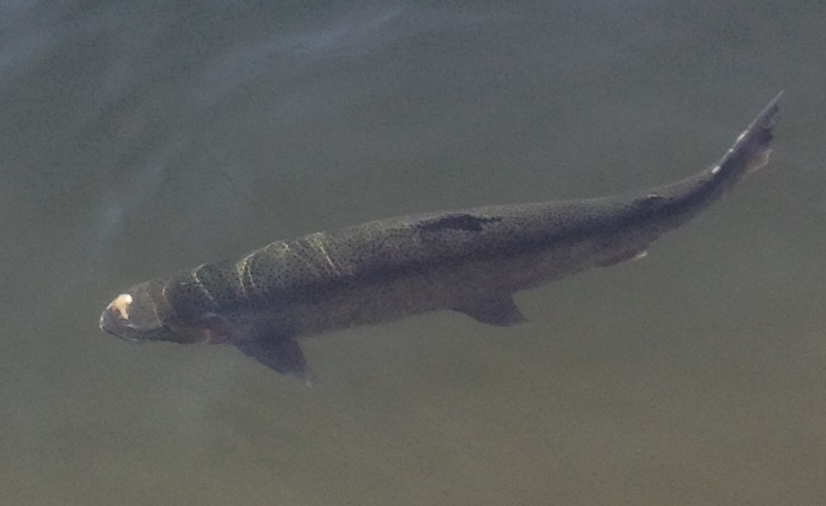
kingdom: Animalia
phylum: Chordata
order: Salmoniformes
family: Salmonidae
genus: Oncorhynchus
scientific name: Oncorhynchus mykiss
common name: Rainbow trout
